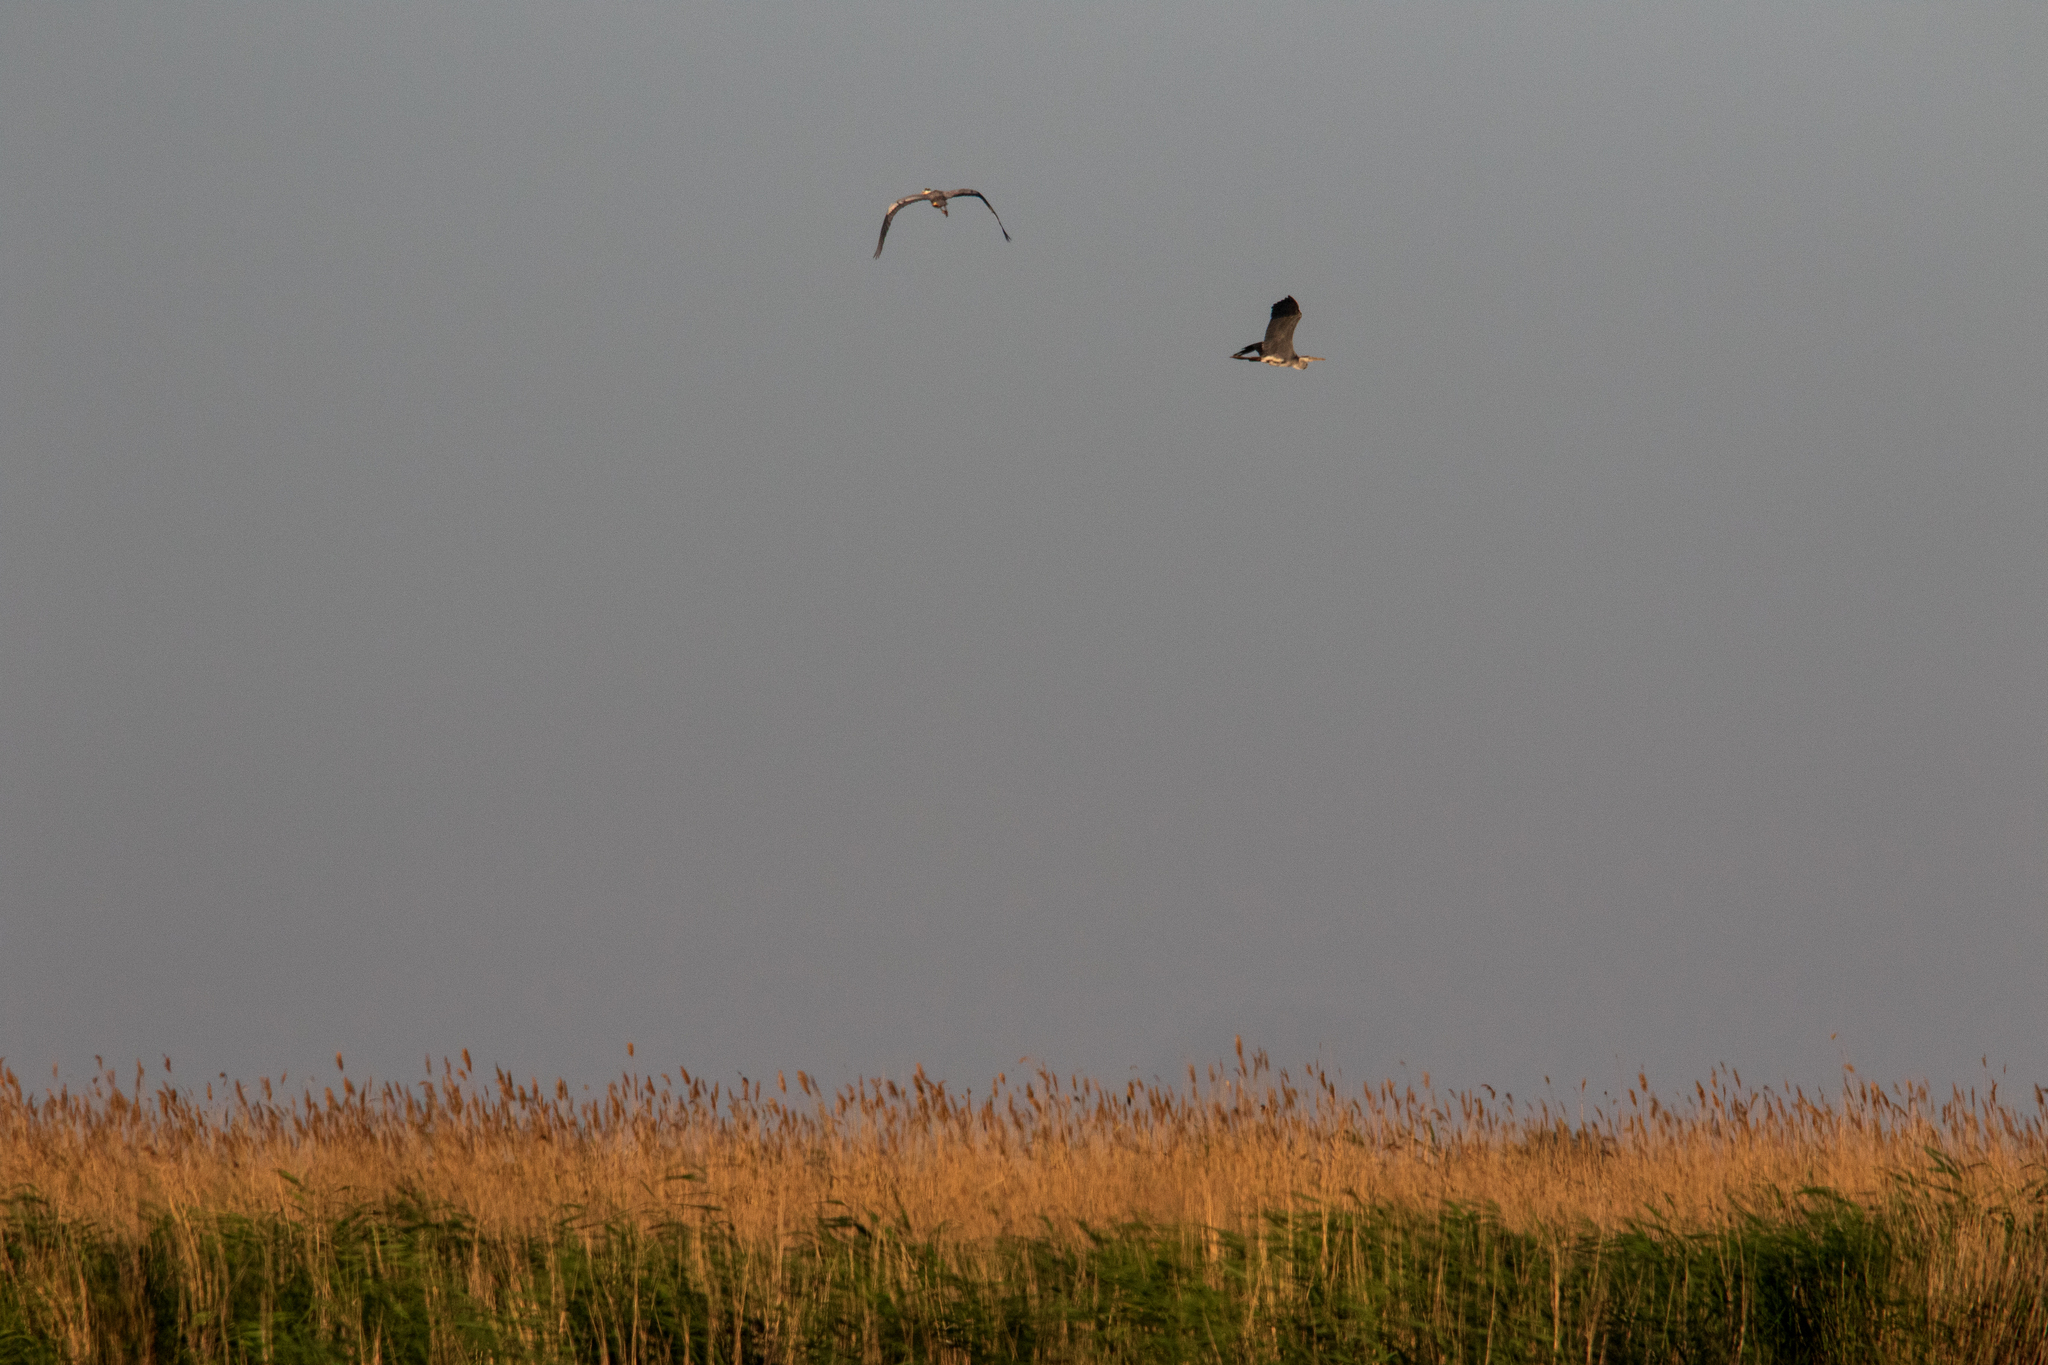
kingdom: Animalia
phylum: Chordata
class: Aves
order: Pelecaniformes
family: Ardeidae
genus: Ardea
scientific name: Ardea cinerea
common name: Grey heron
